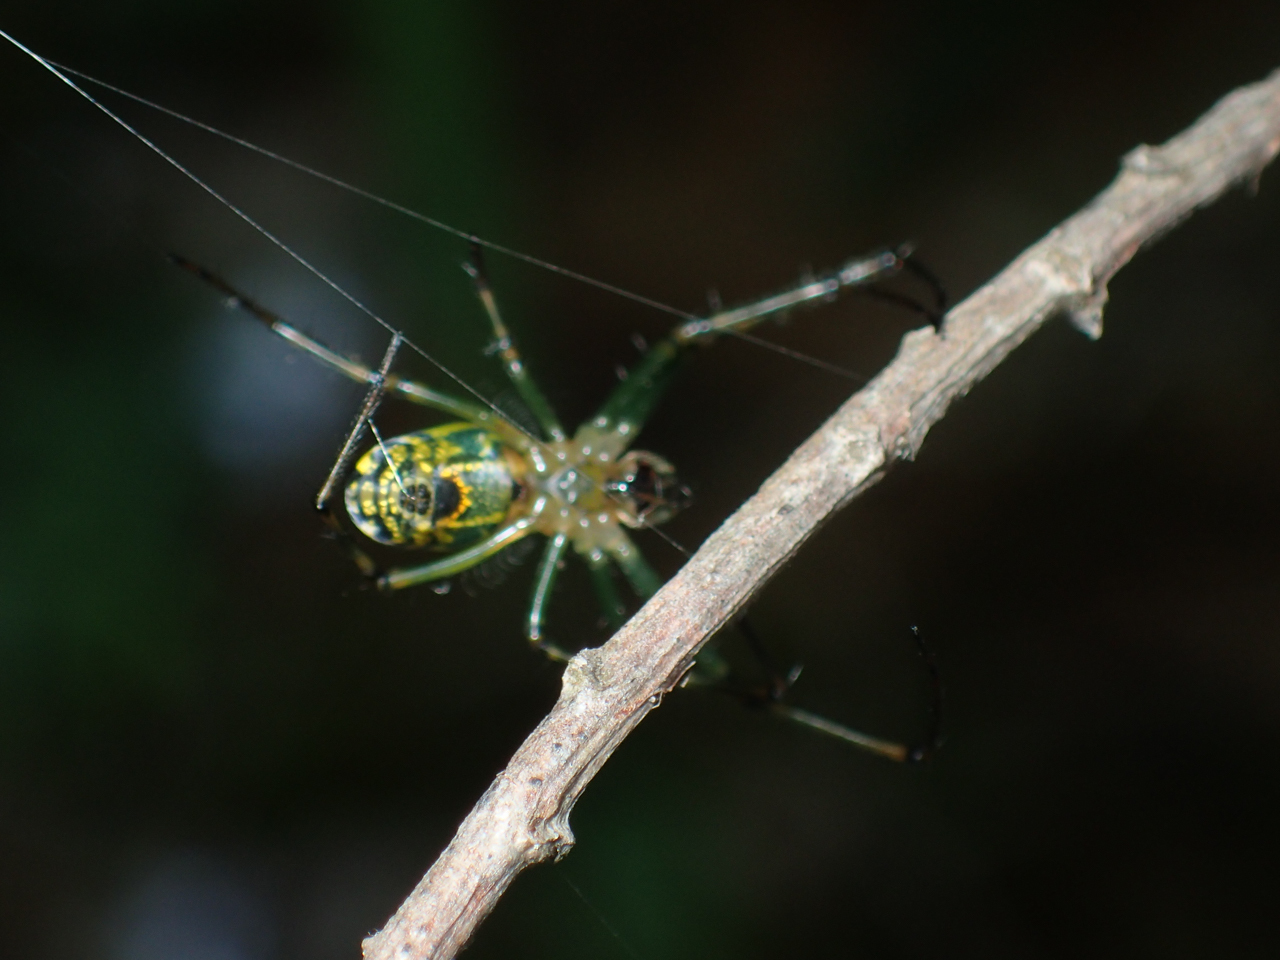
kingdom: Animalia
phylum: Arthropoda
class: Arachnida
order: Araneae
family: Tetragnathidae
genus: Leucauge
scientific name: Leucauge venusta
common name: Longjawed orb weavers
